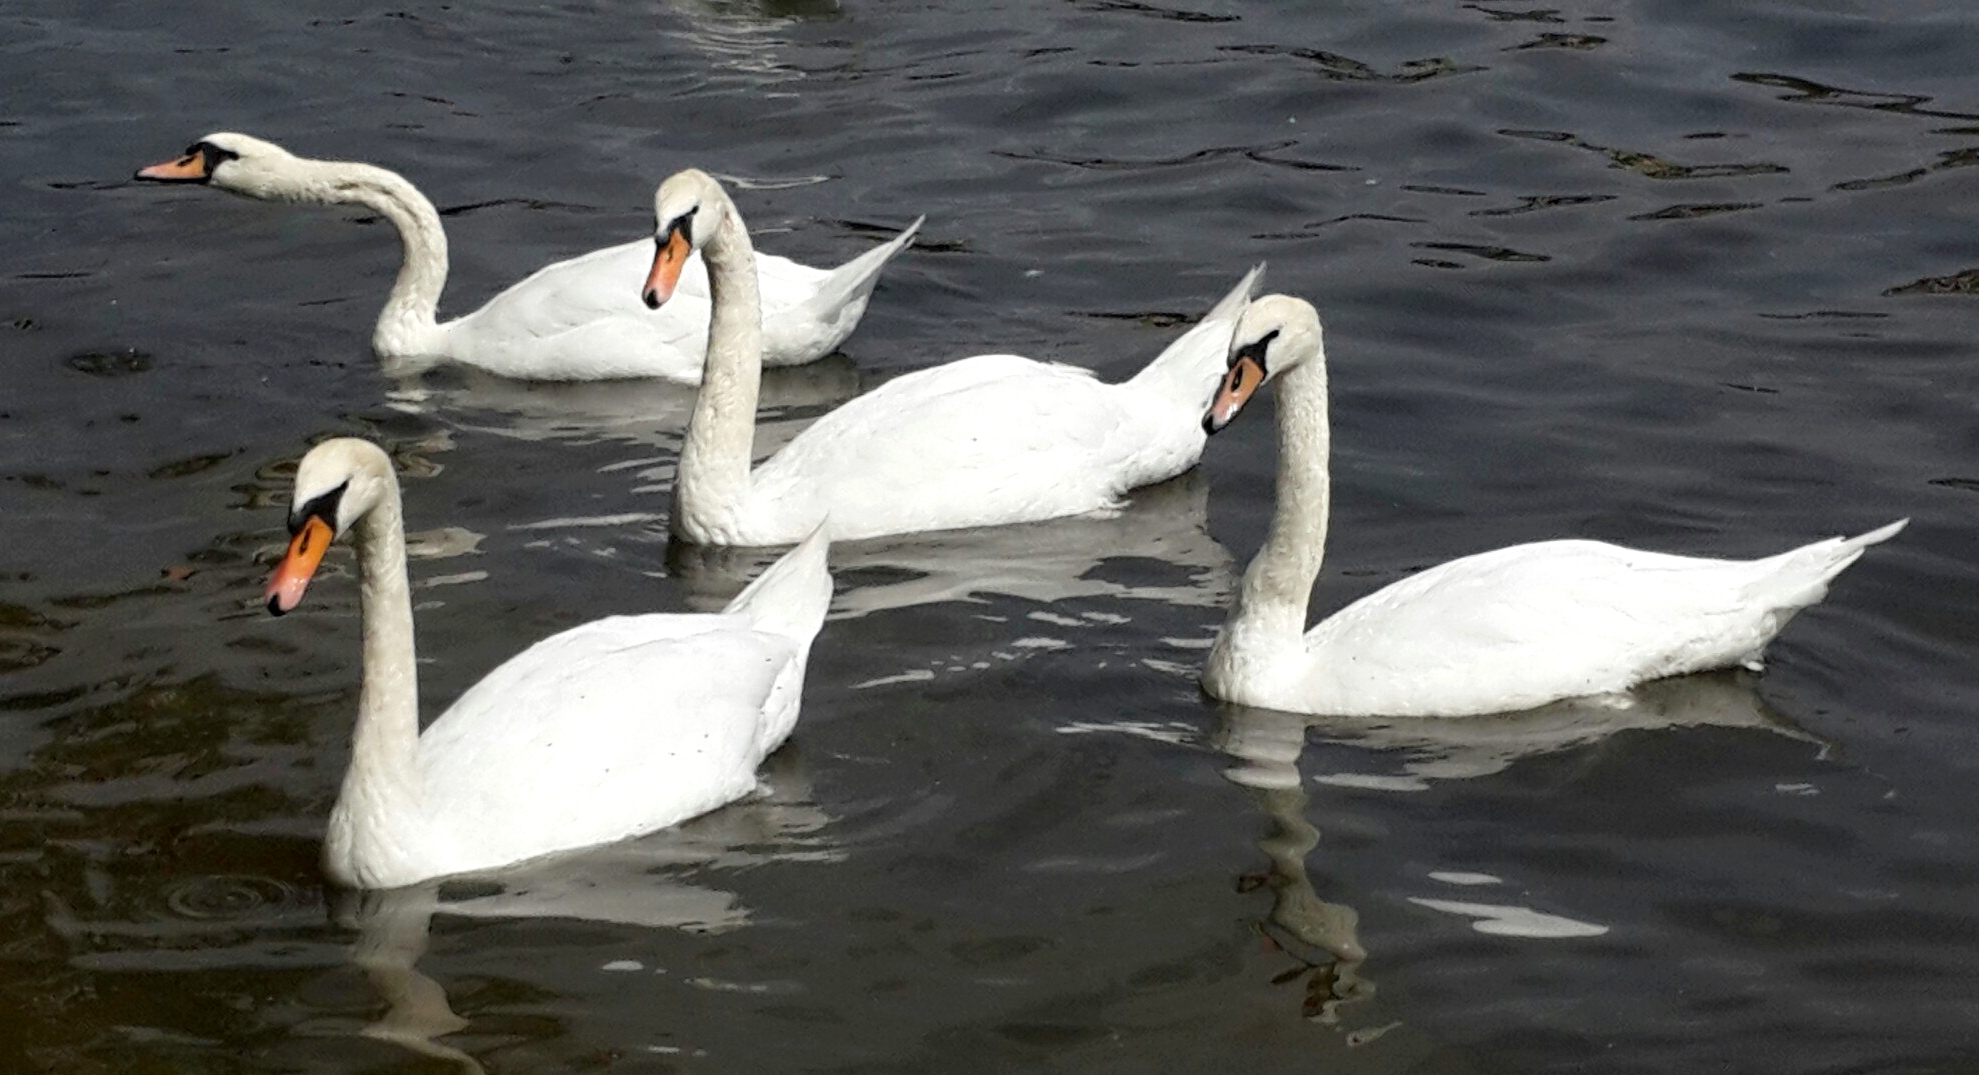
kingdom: Animalia
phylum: Chordata
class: Aves
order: Anseriformes
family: Anatidae
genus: Cygnus
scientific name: Cygnus olor
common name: Mute swan
